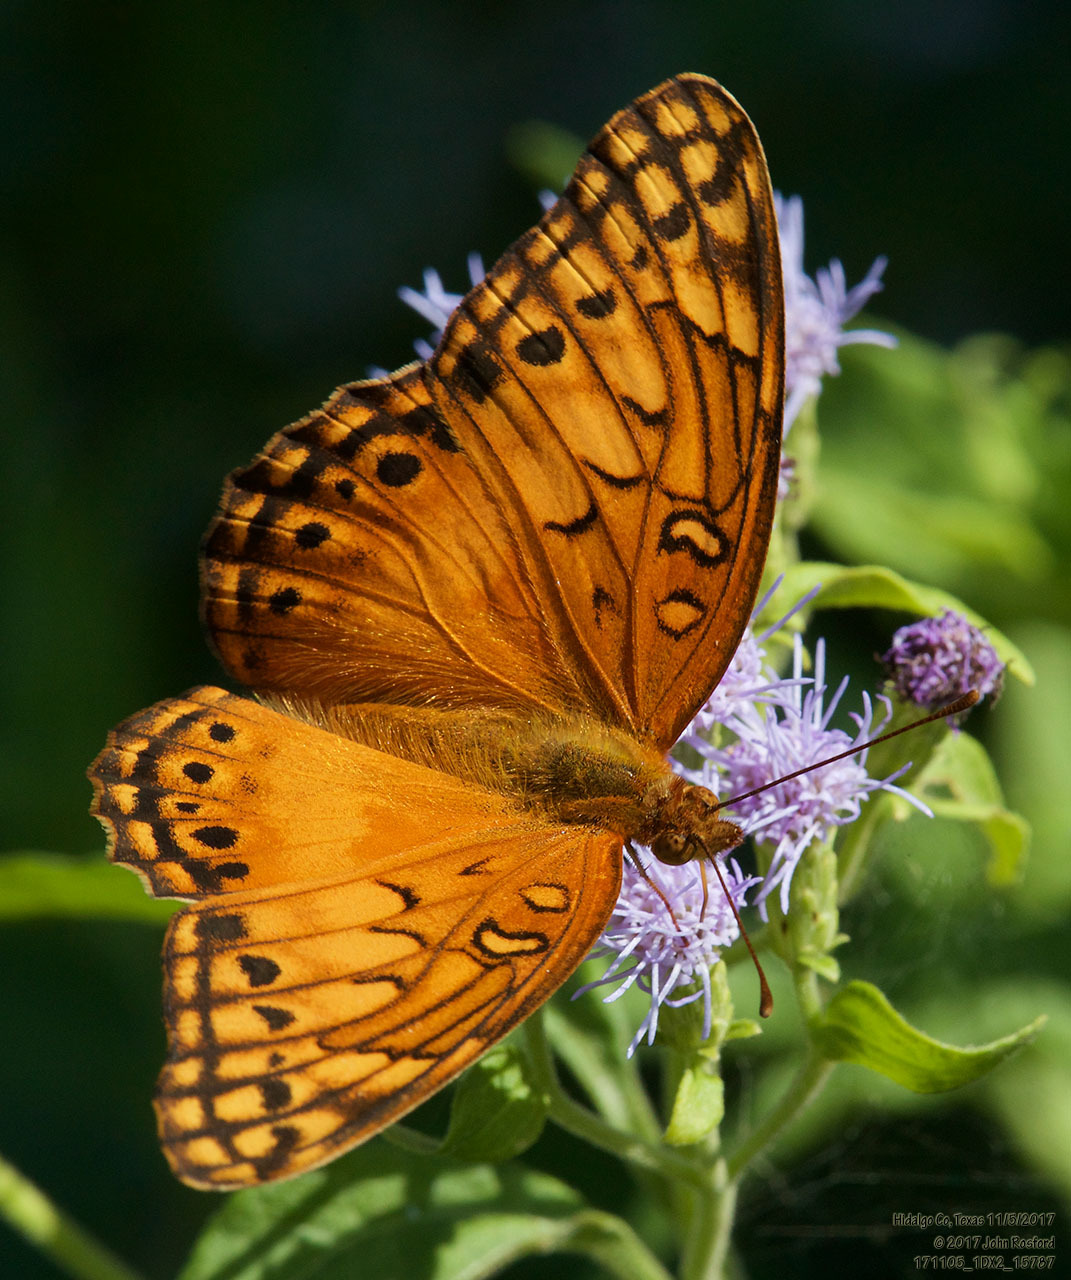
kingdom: Animalia
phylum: Arthropoda
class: Insecta
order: Lepidoptera
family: Nymphalidae
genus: Euptoieta
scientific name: Euptoieta hegesia
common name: Mexican fritillary
